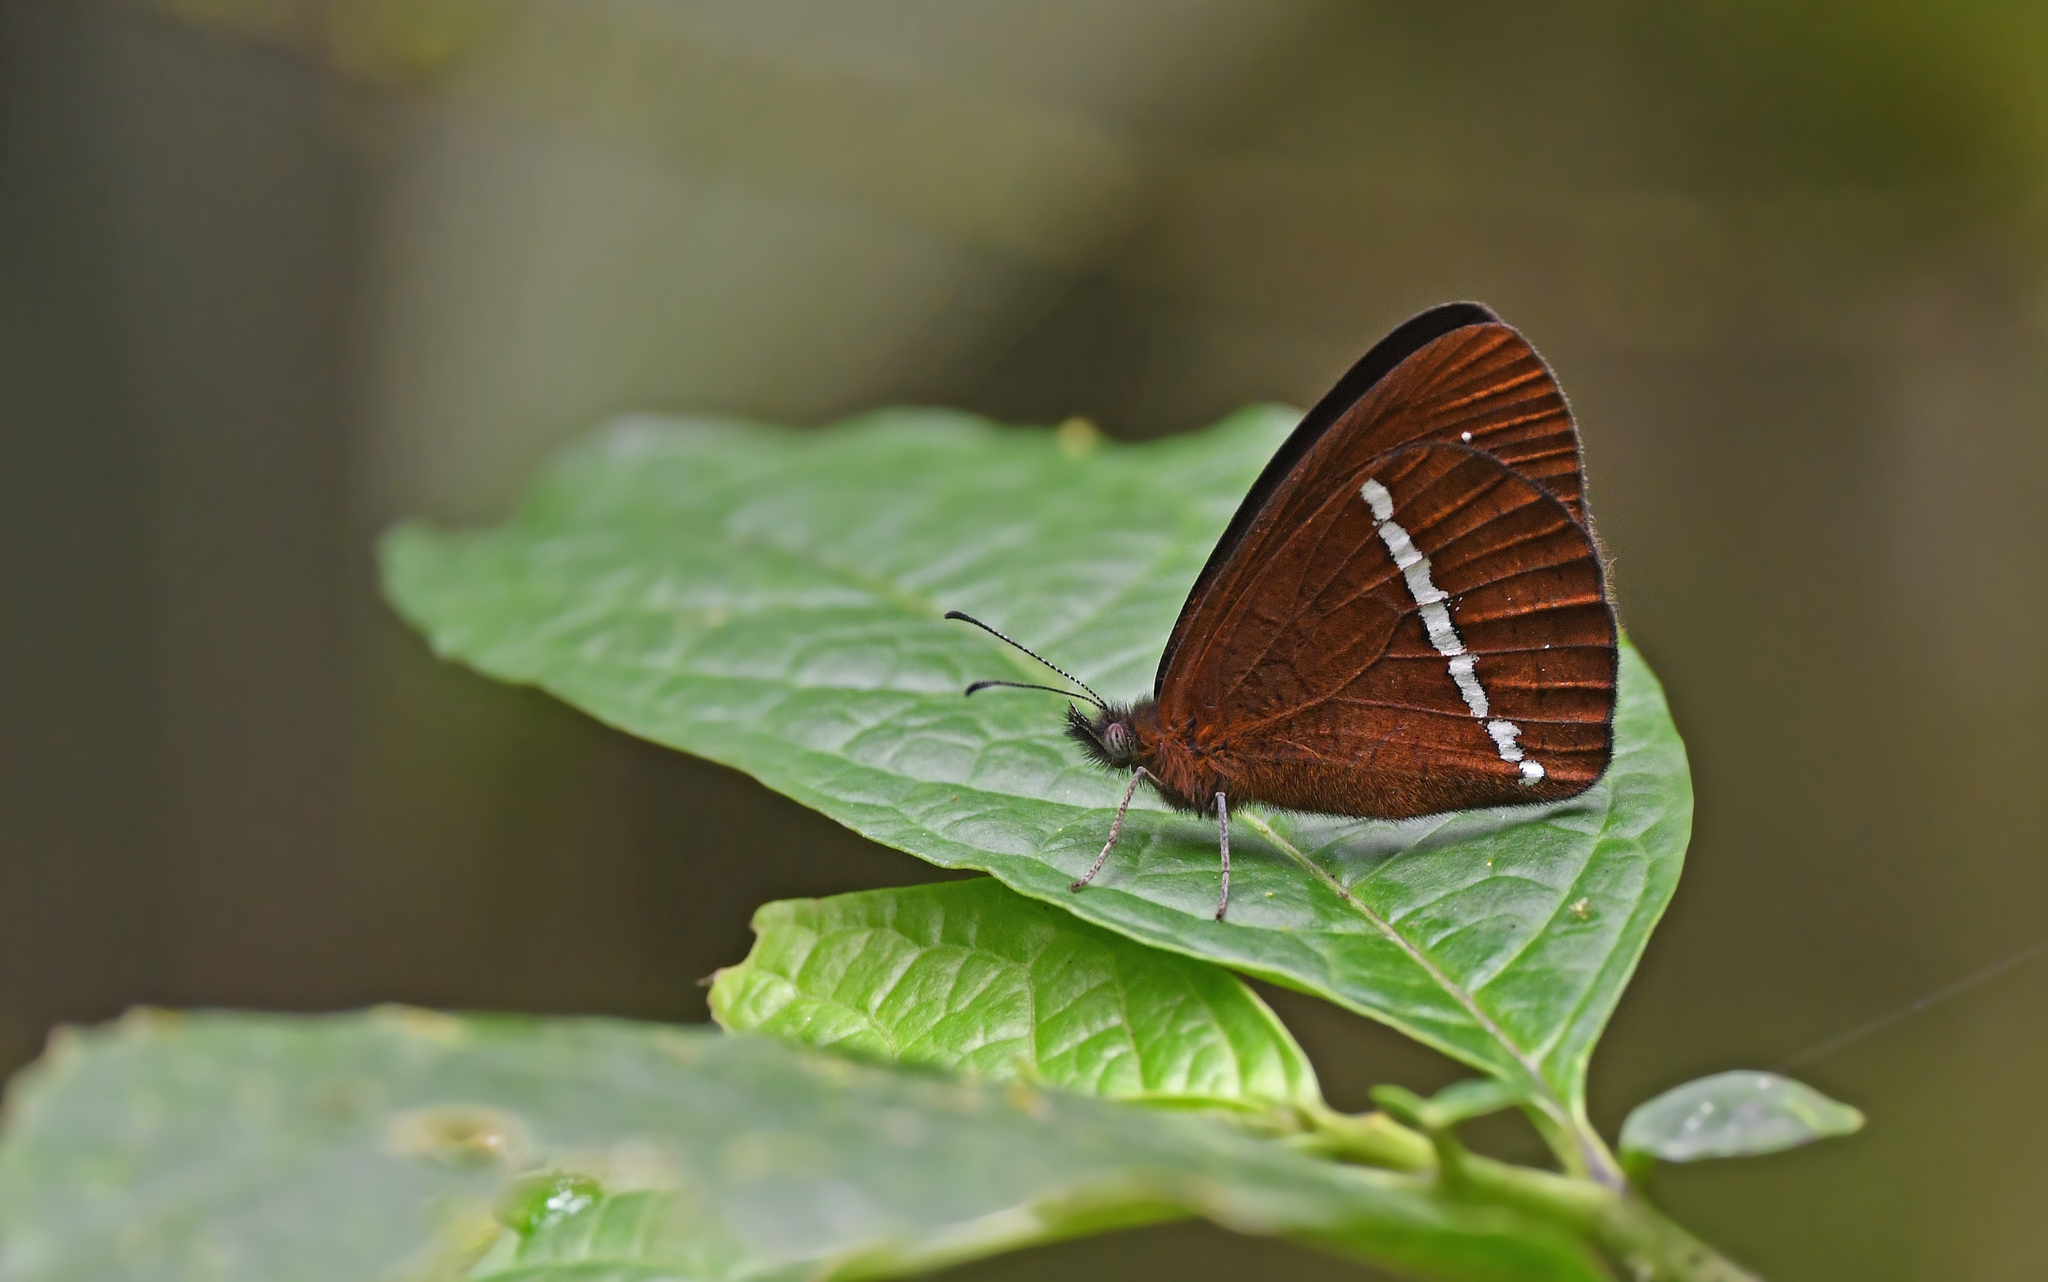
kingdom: Animalia
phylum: Arthropoda
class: Insecta
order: Lepidoptera
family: Nymphalidae
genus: Lymanopoda
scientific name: Lymanopoda albocincta
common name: White-banded mountain satyr
